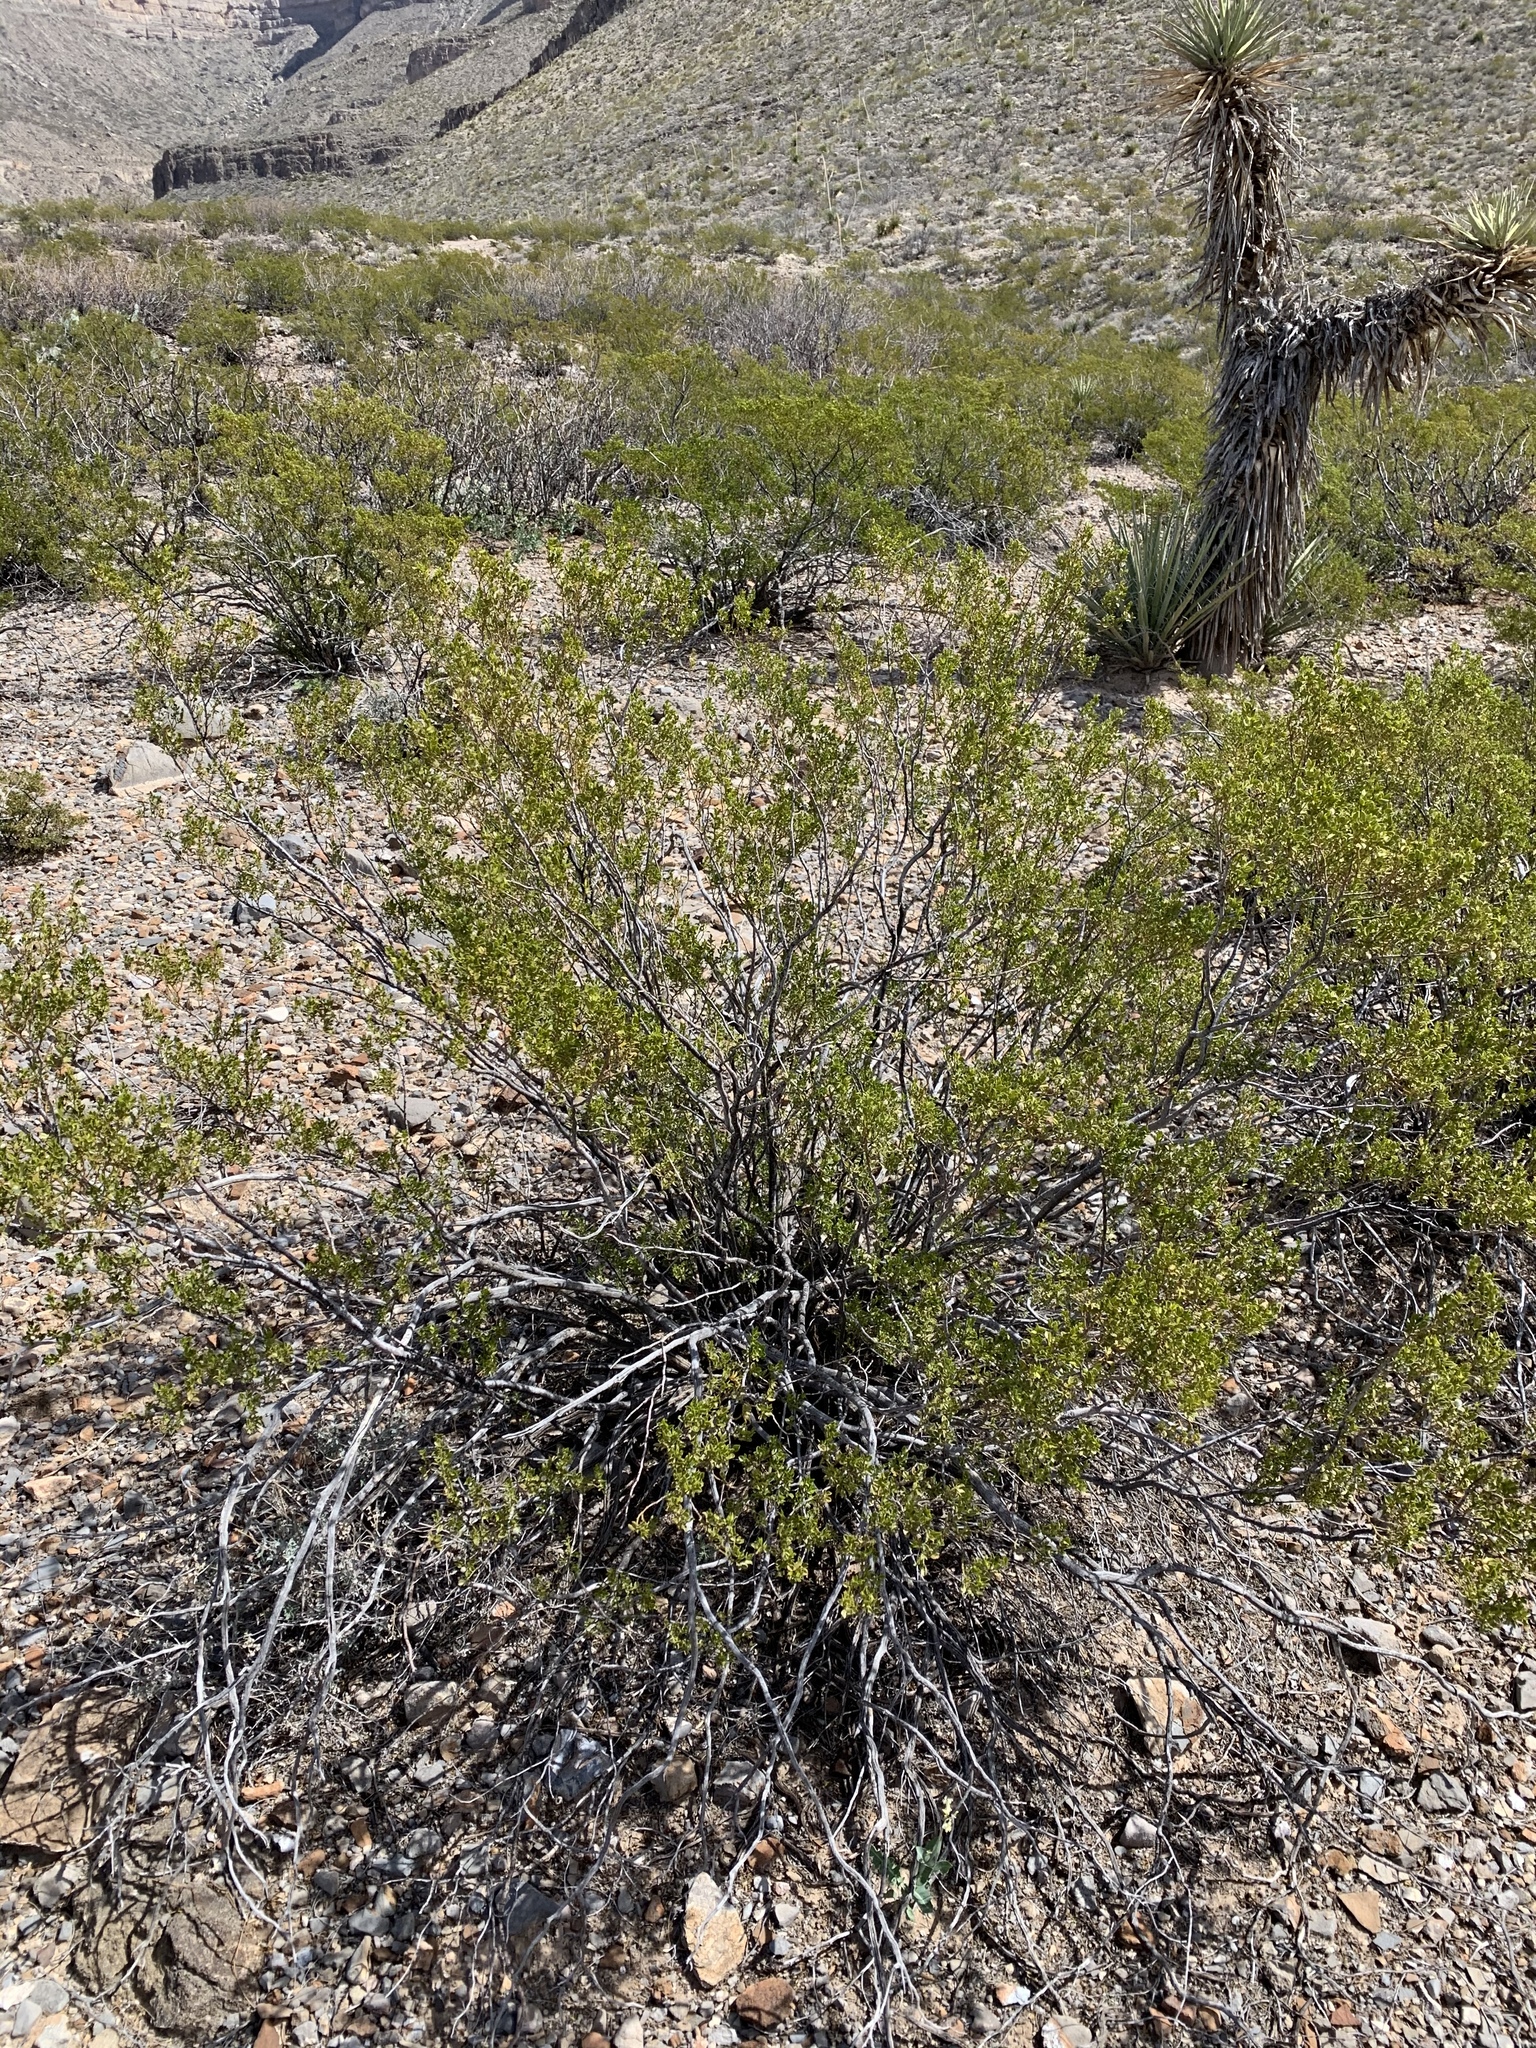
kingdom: Plantae
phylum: Tracheophyta
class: Magnoliopsida
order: Zygophyllales
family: Zygophyllaceae
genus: Larrea
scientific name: Larrea tridentata
